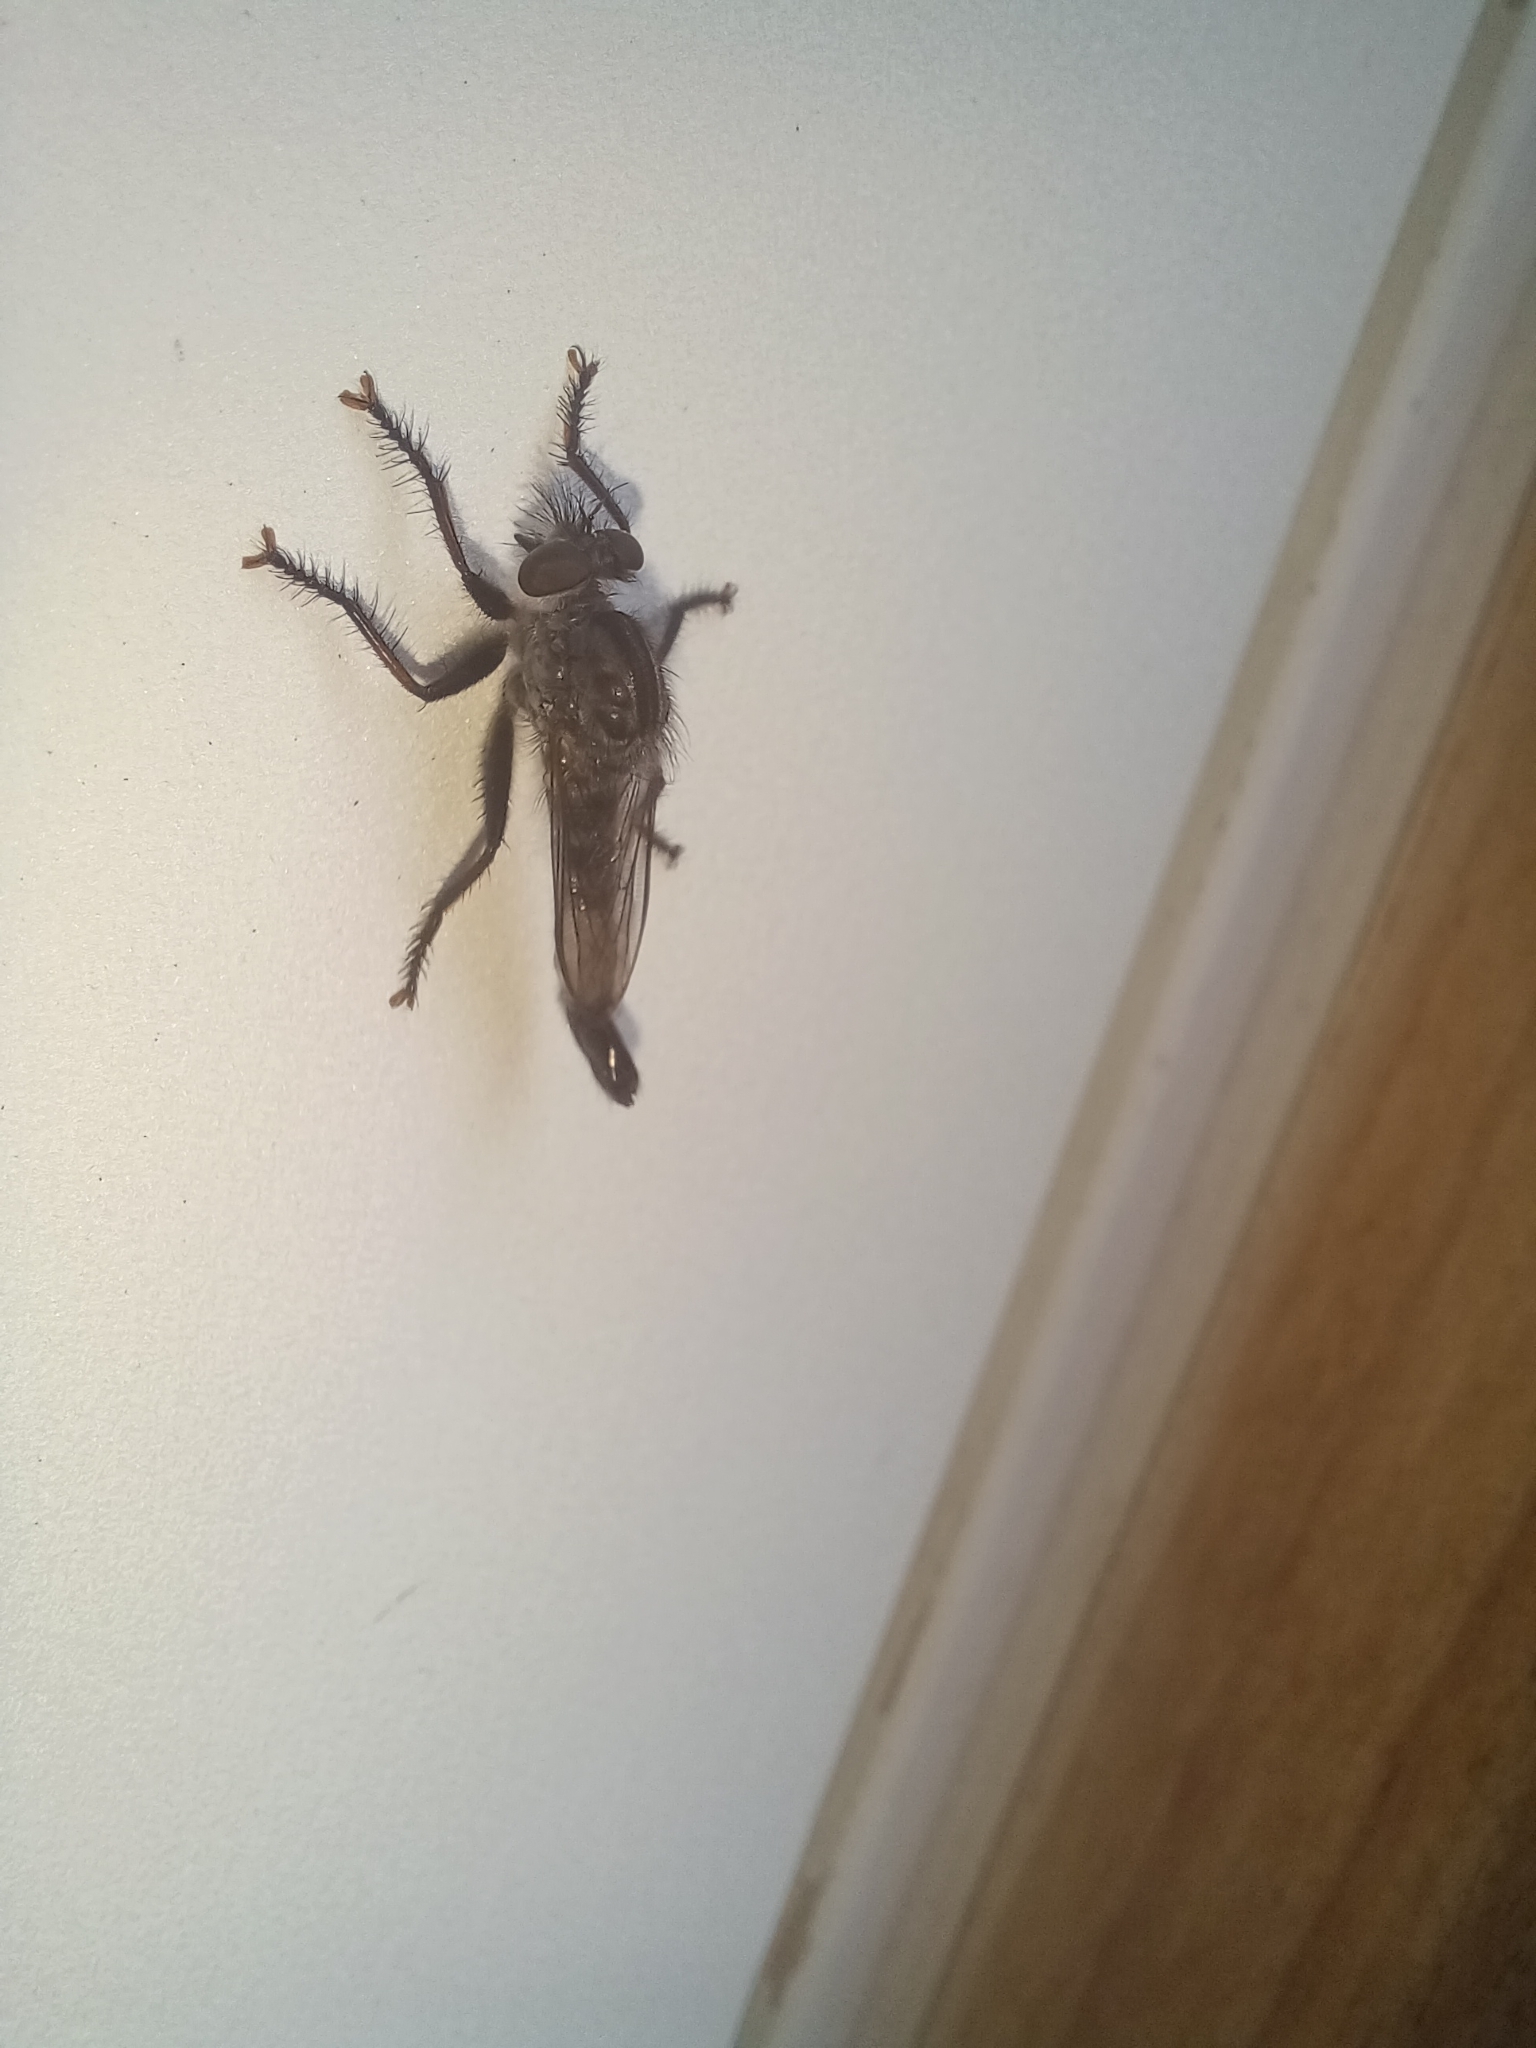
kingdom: Animalia
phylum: Arthropoda
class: Insecta
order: Diptera
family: Asilidae
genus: Efferia
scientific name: Efferia aestuans
